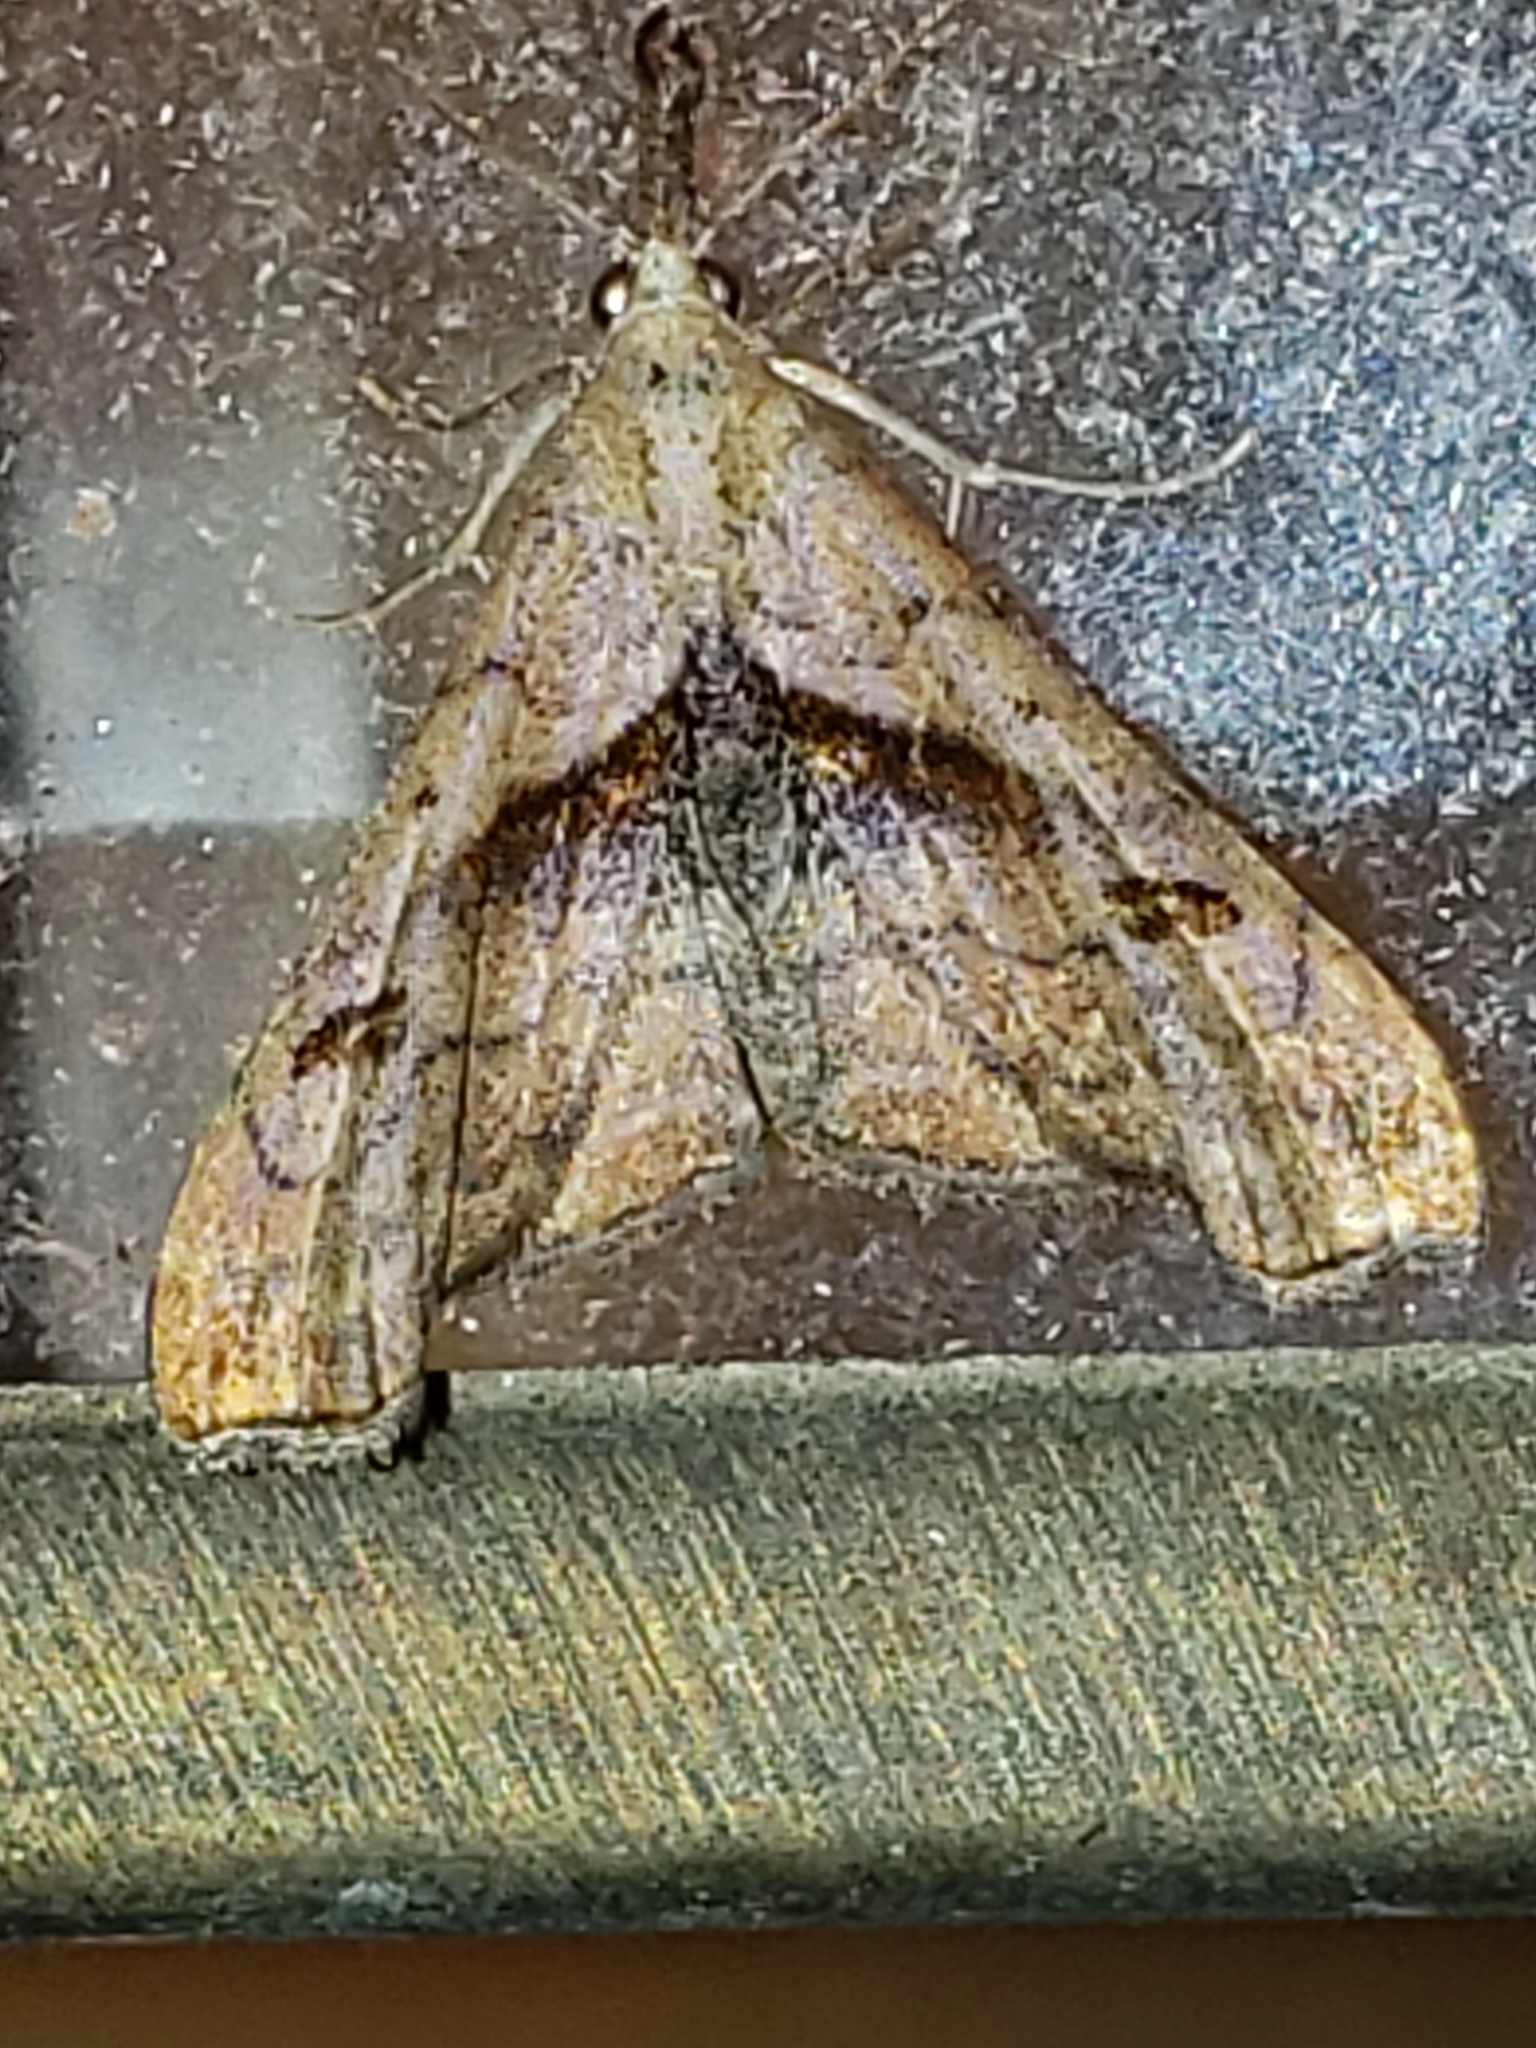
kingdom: Animalia
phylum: Arthropoda
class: Insecta
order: Lepidoptera
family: Erebidae
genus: Palthis
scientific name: Palthis angulalis
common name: Dark-spotted palthis moth
